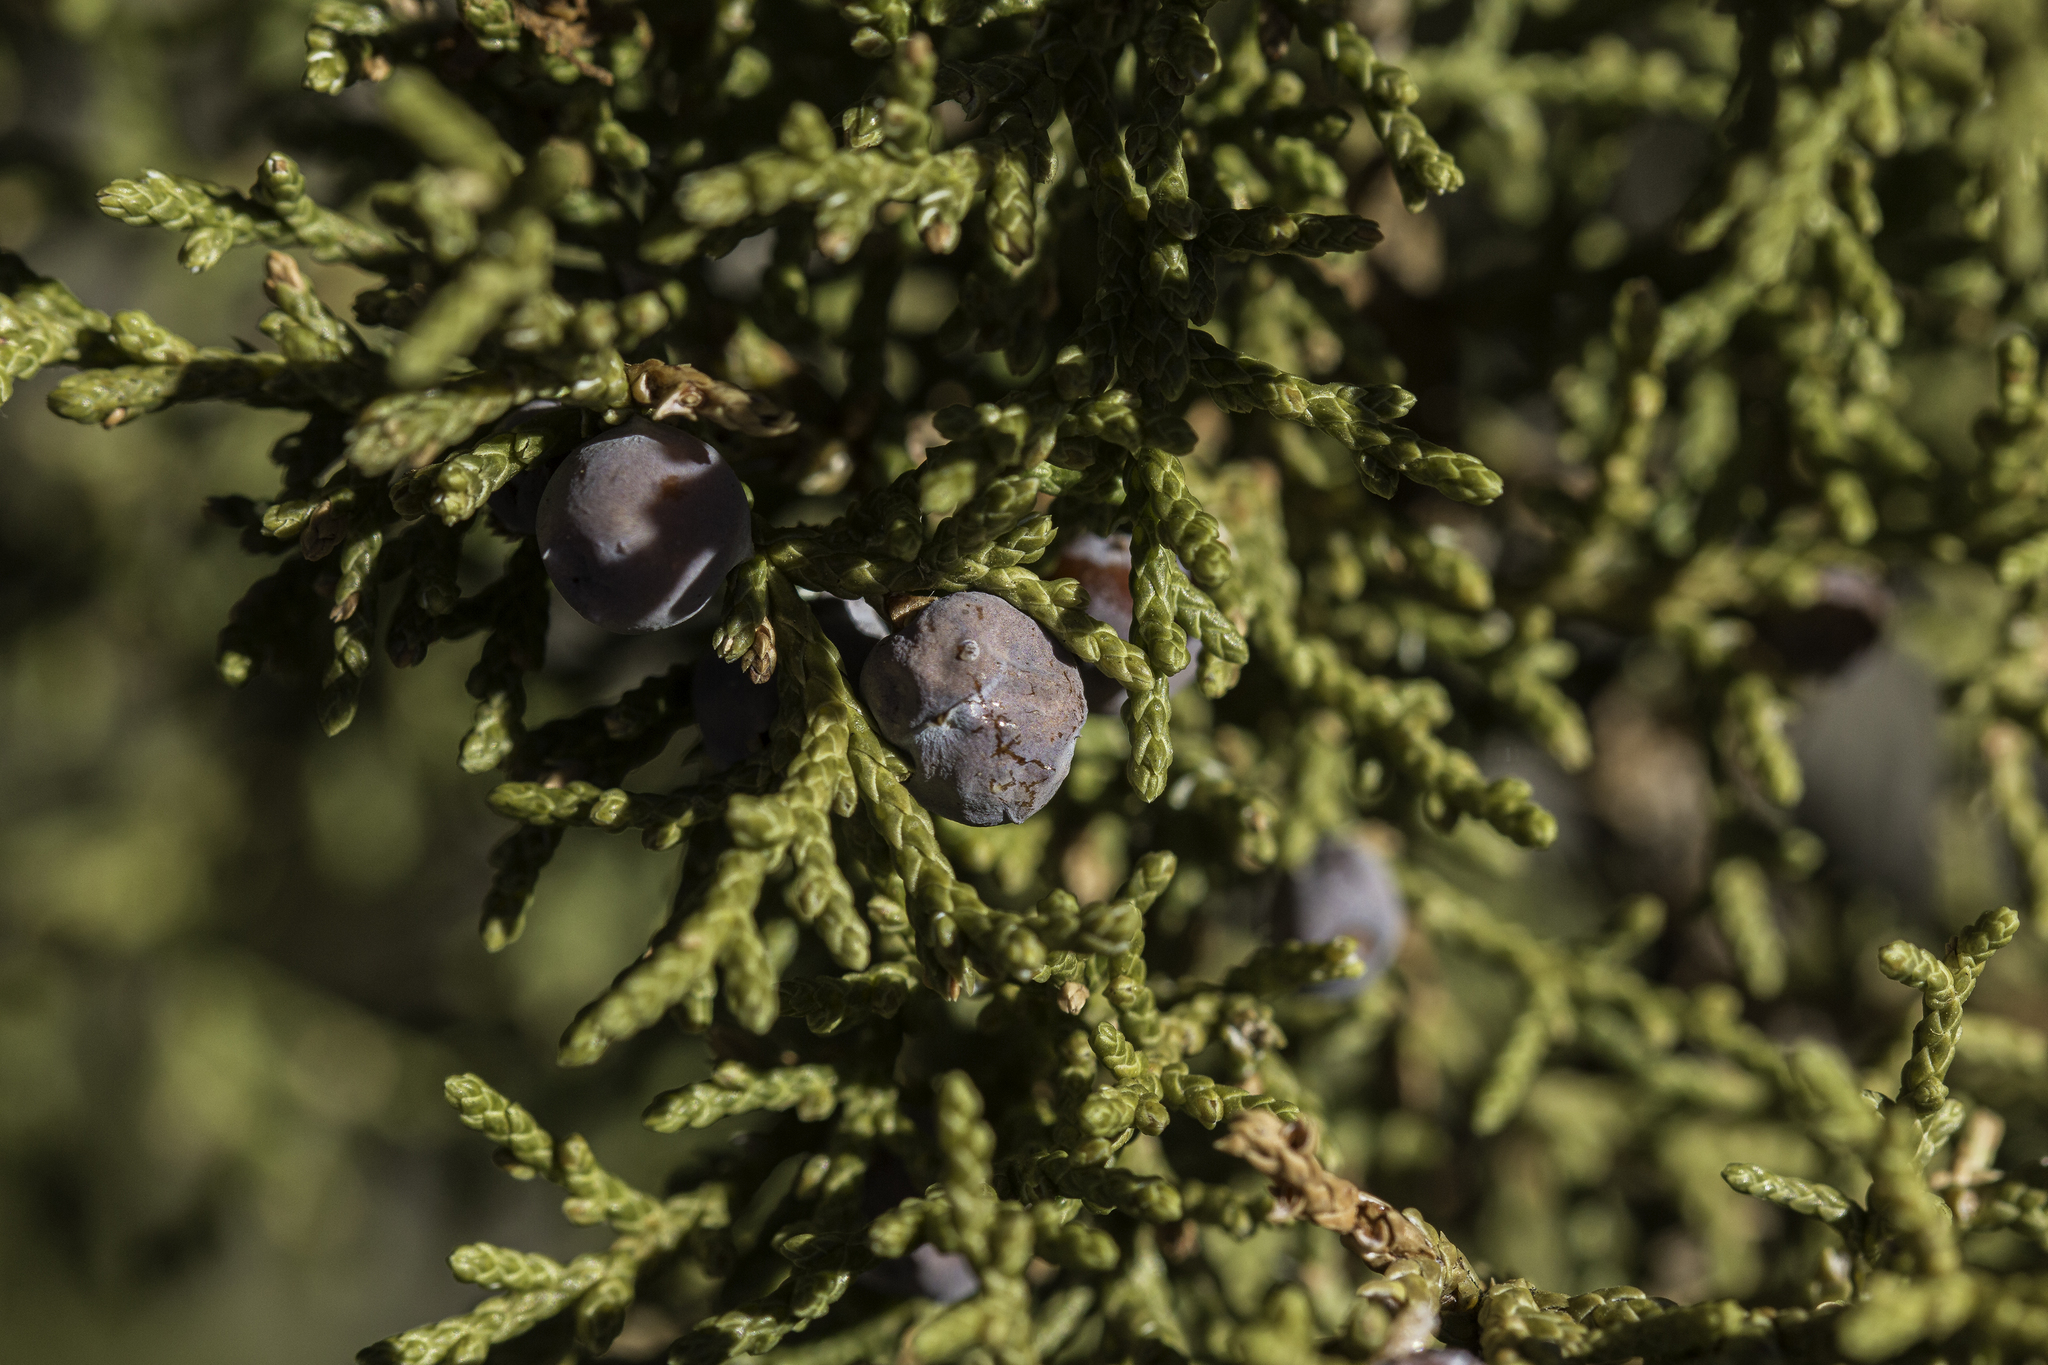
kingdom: Plantae
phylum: Tracheophyta
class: Pinopsida
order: Pinales
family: Cupressaceae
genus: Juniperus
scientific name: Juniperus monosperma
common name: One-seed juniper
